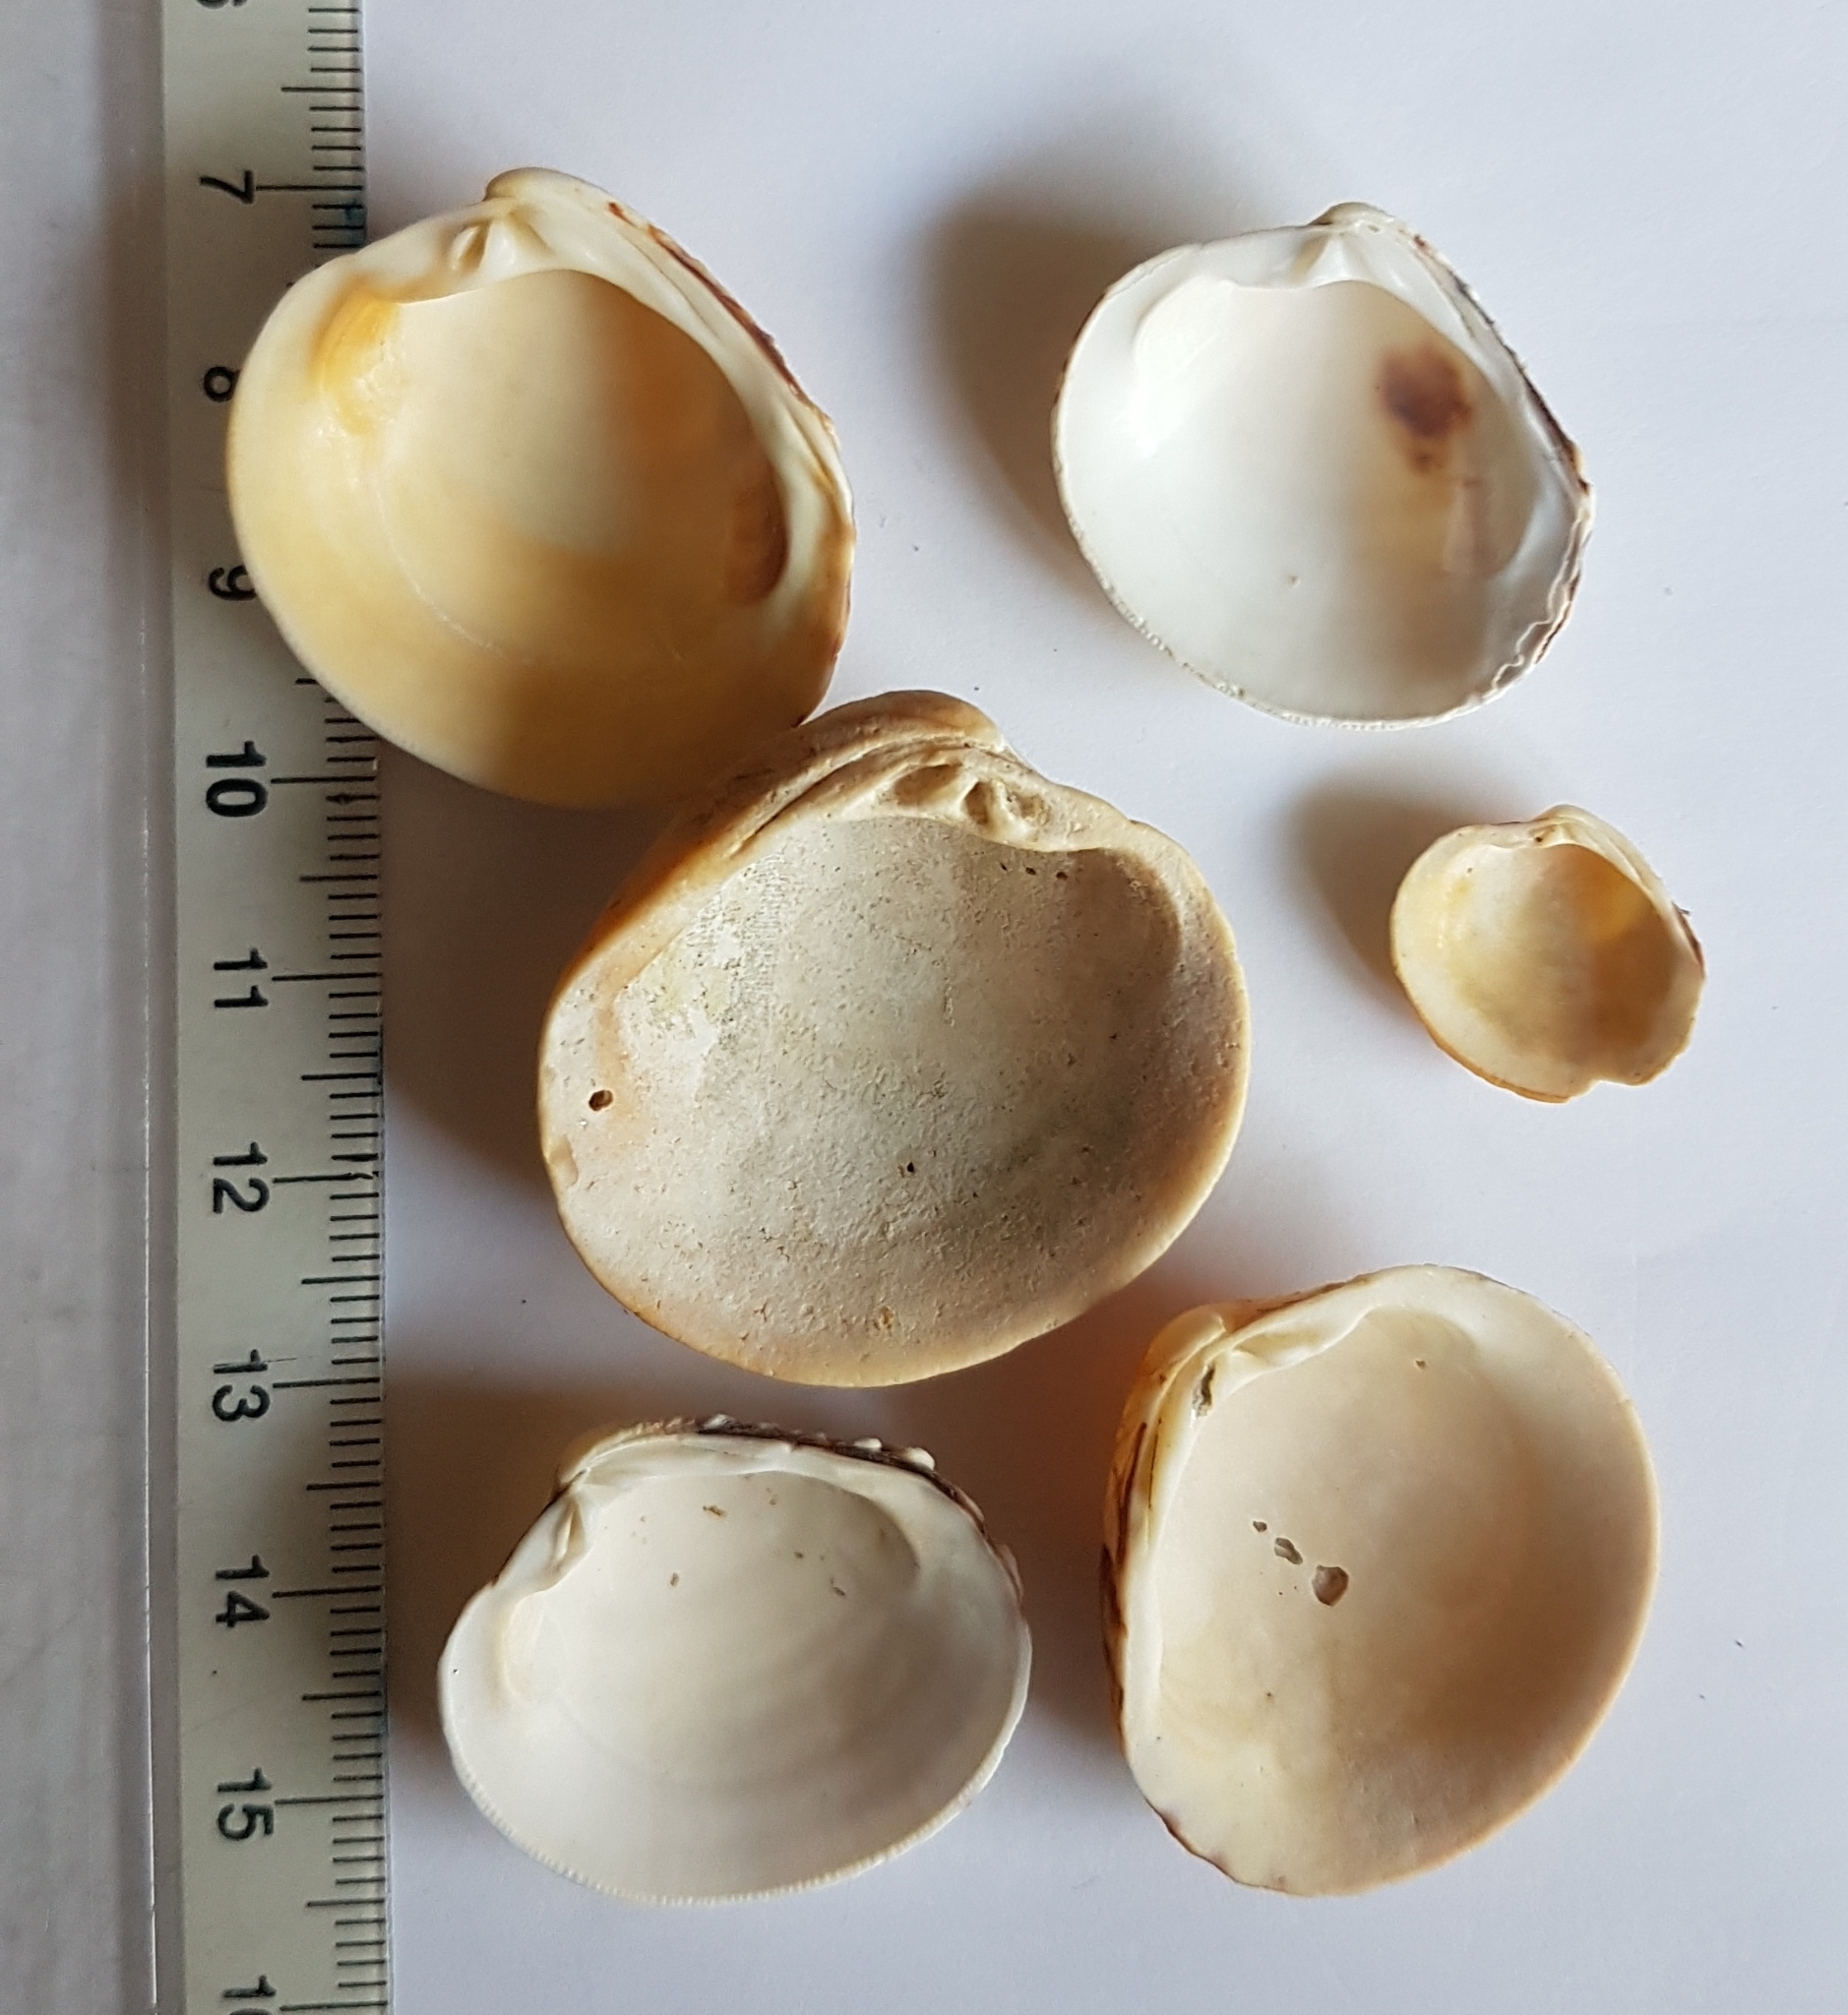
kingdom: Animalia
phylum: Mollusca
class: Bivalvia
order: Venerida
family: Veneridae
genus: Venus
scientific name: Venus verrucosa
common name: Warty venus
